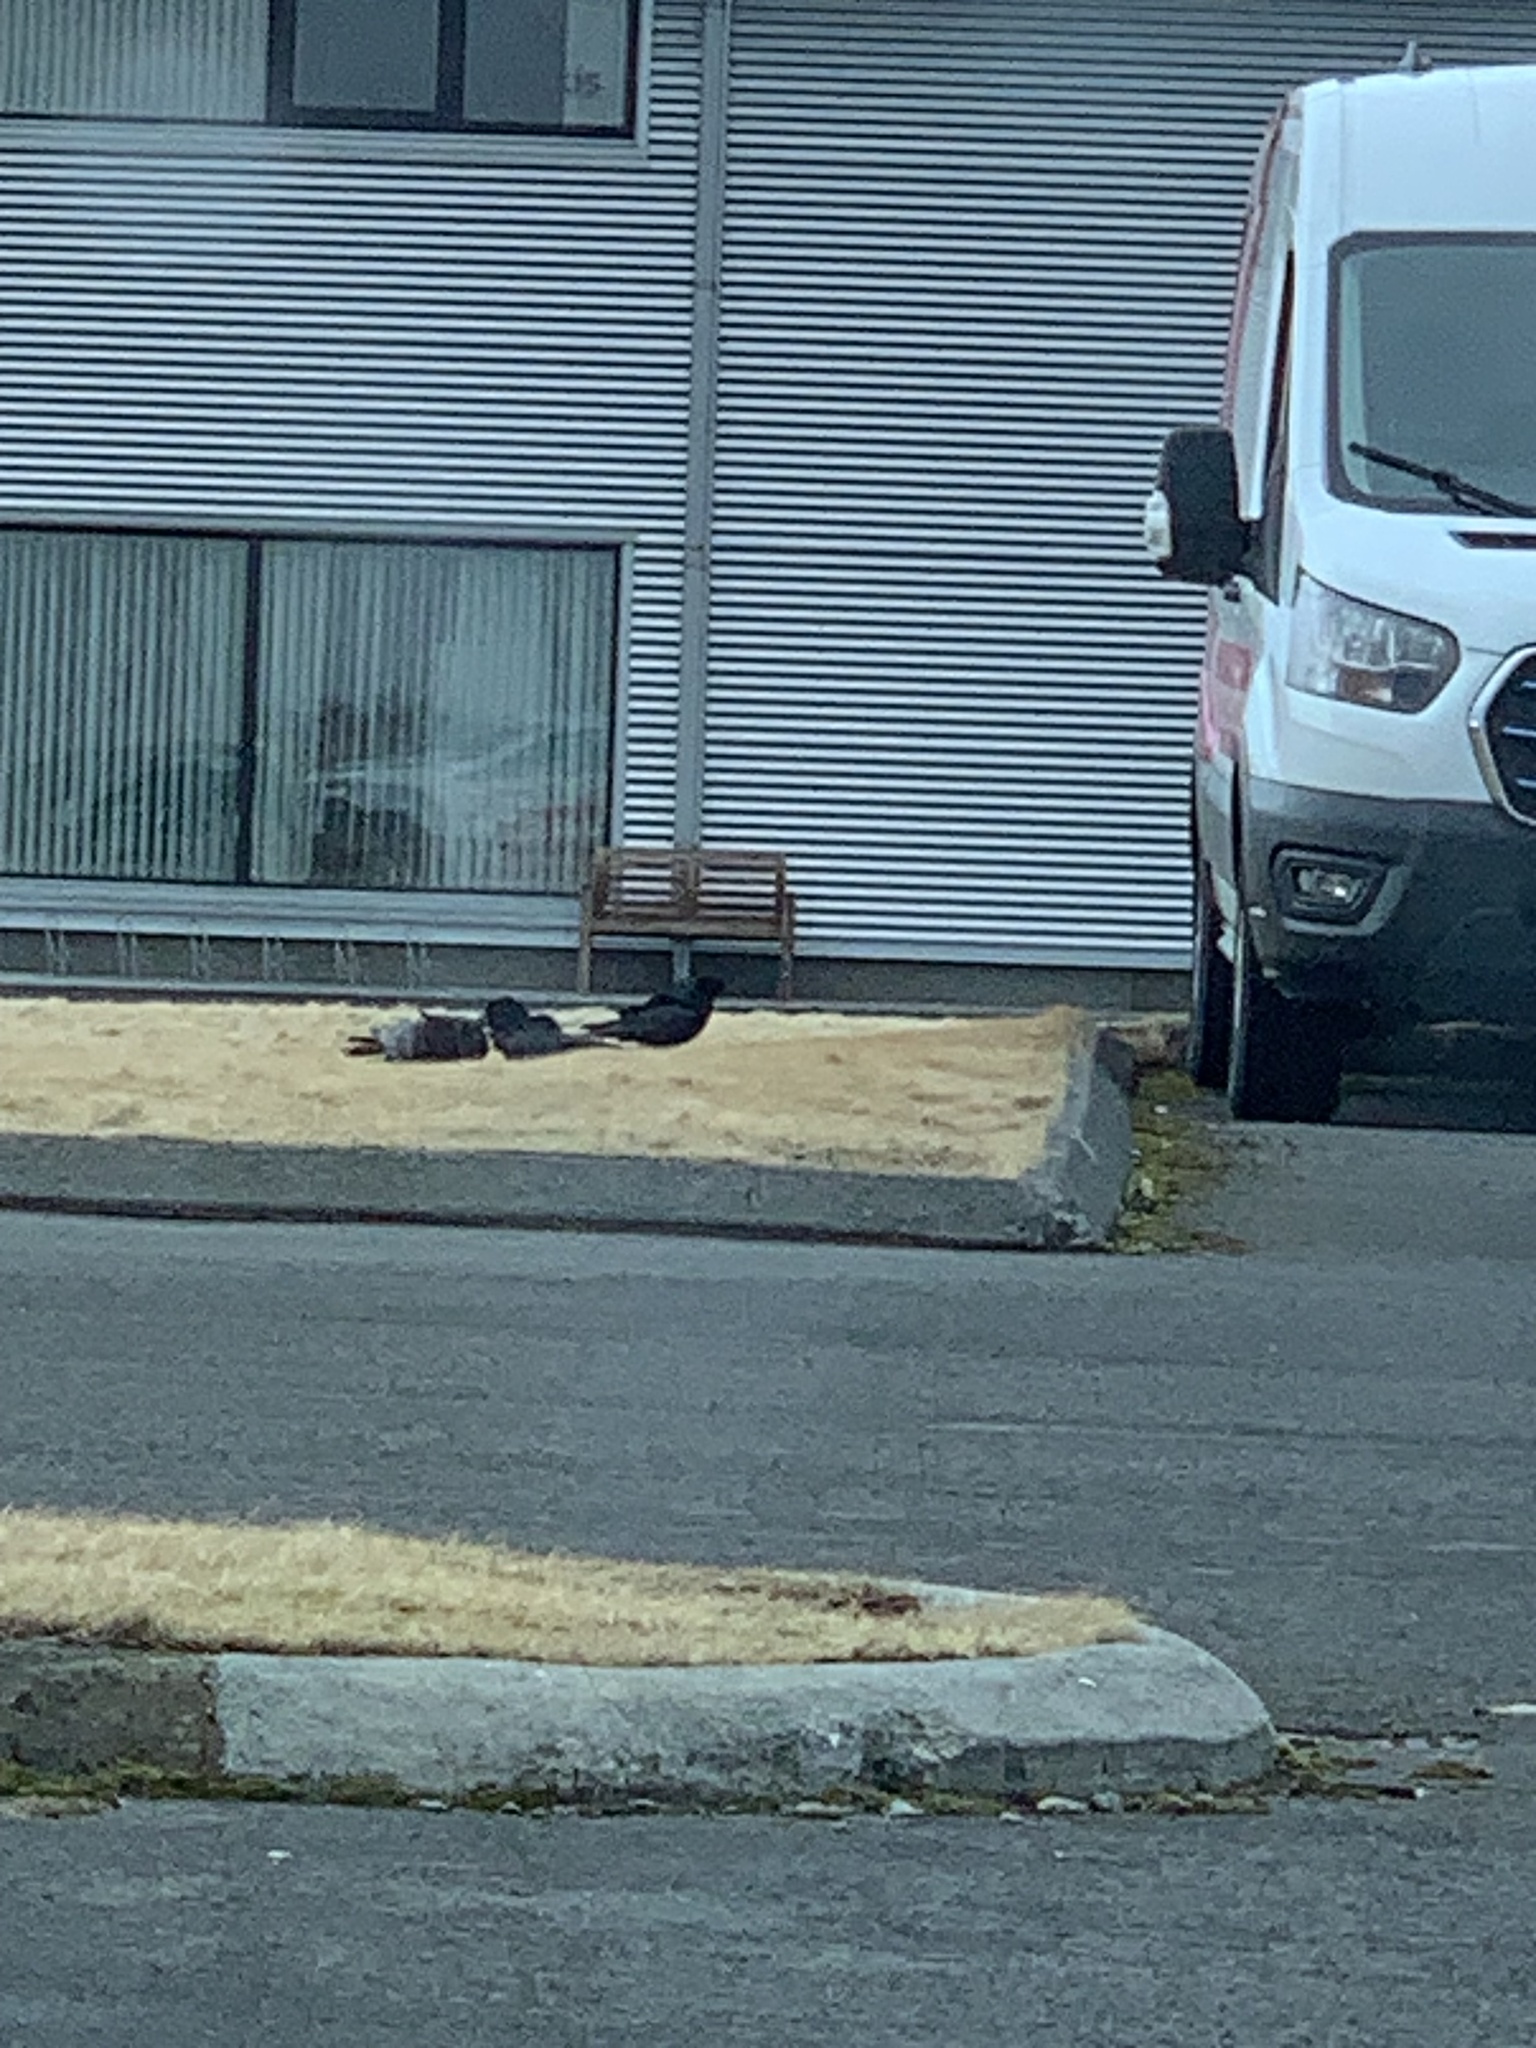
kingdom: Animalia
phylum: Chordata
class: Aves
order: Passeriformes
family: Corvidae
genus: Corvus
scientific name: Corvus corax
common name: Common raven
